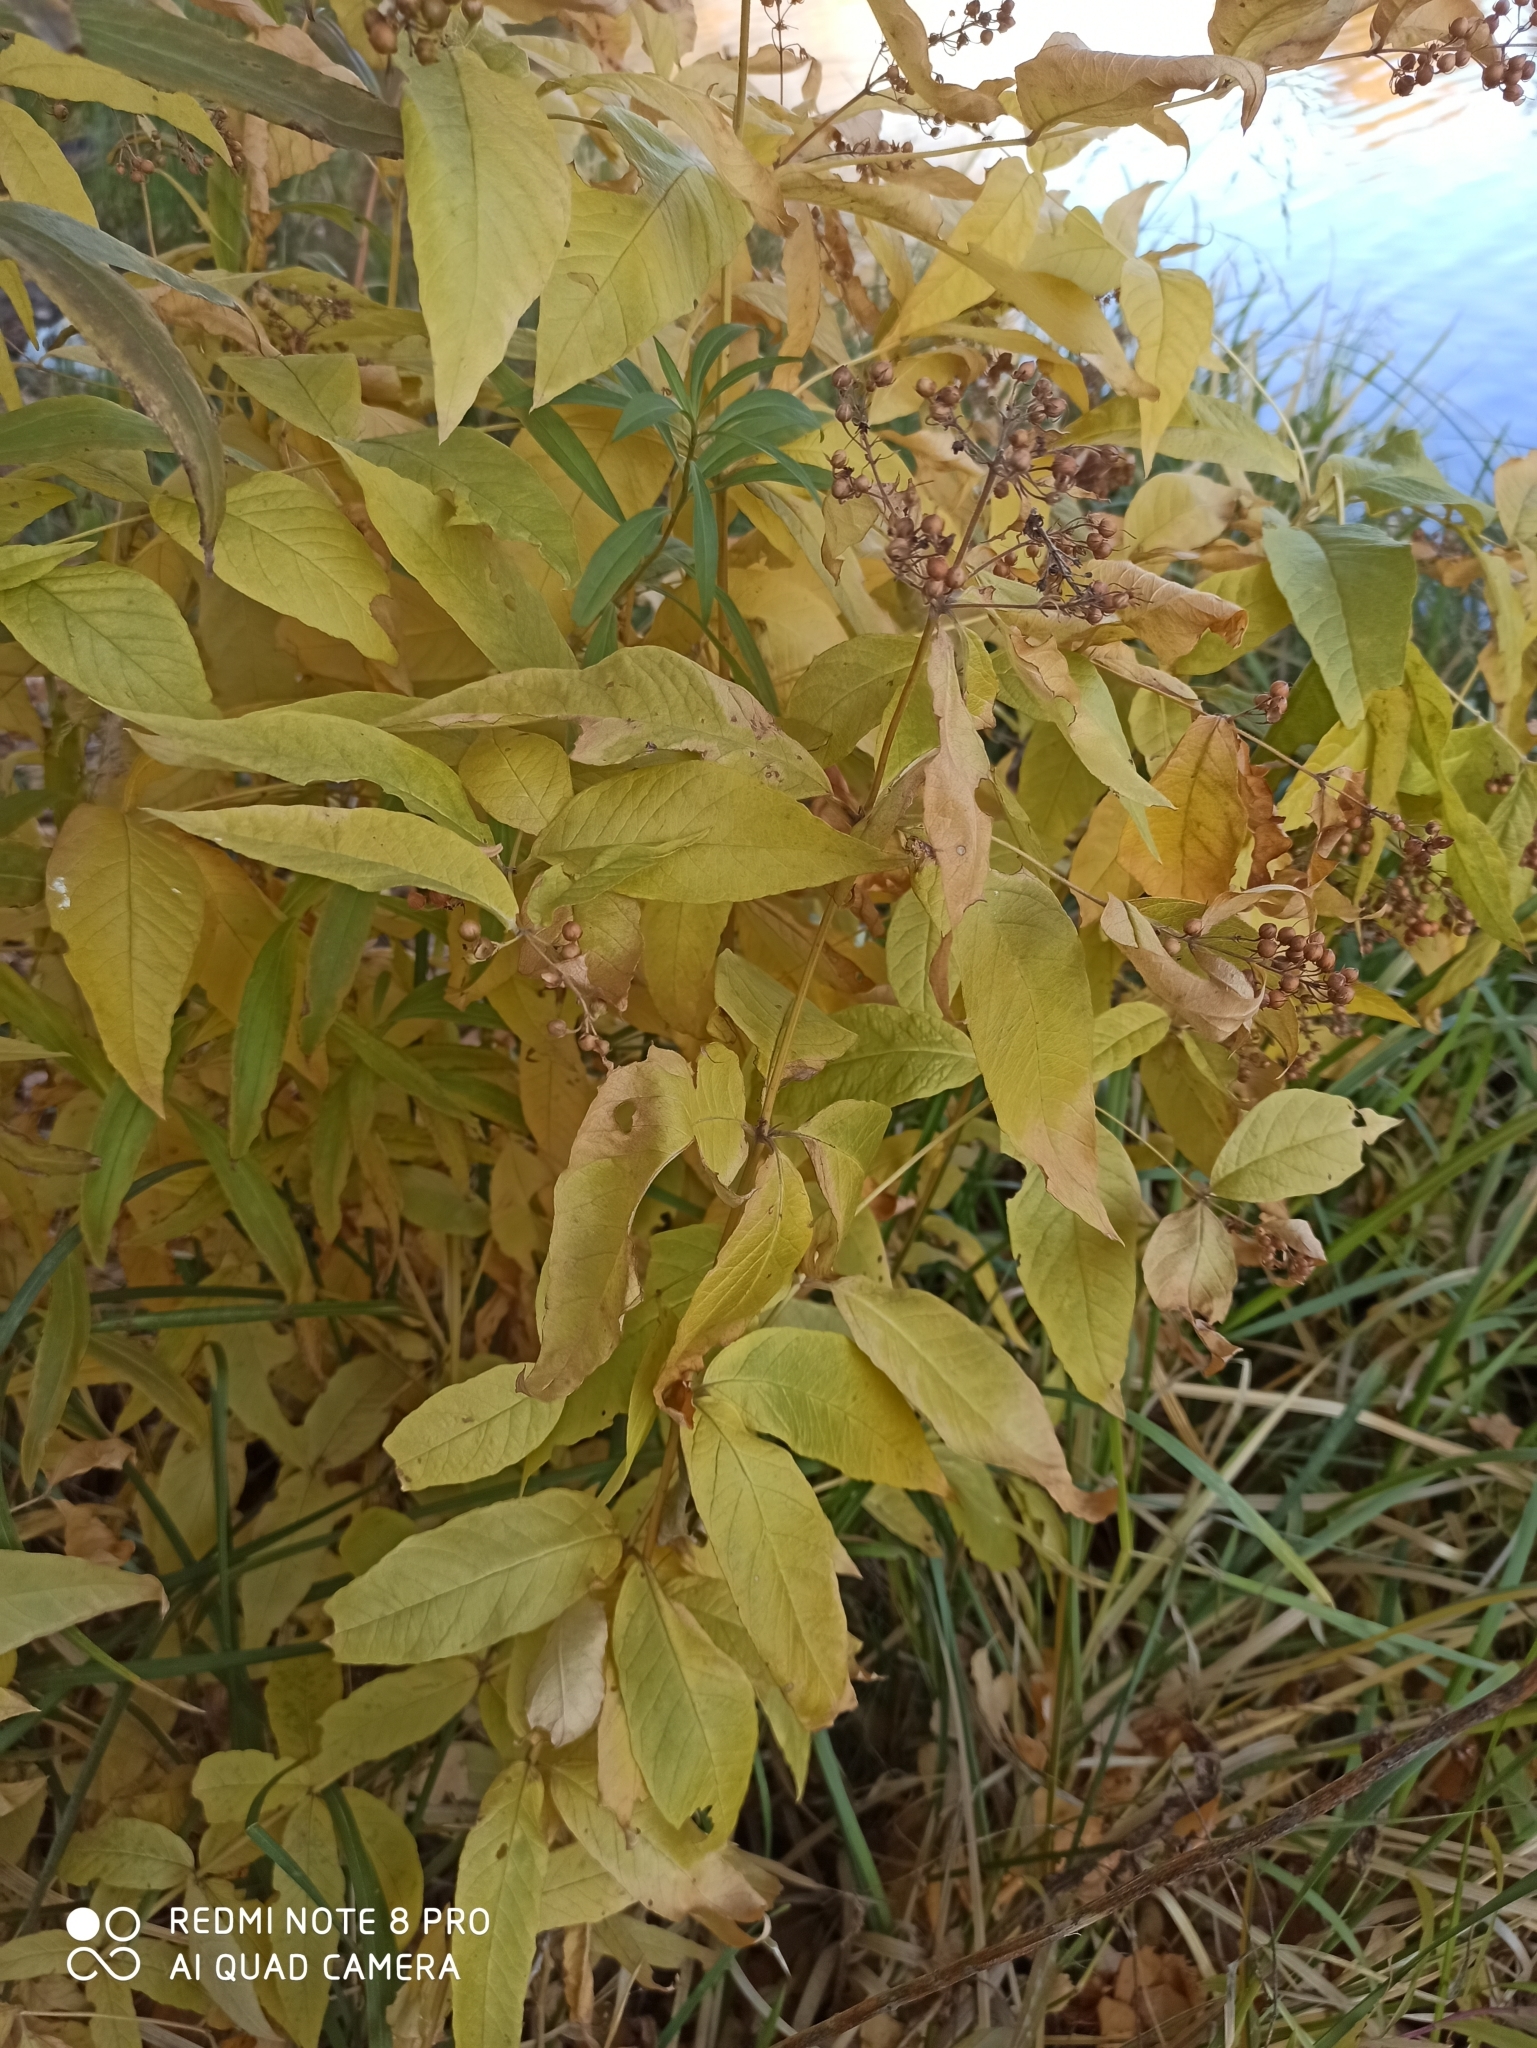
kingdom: Plantae
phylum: Tracheophyta
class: Magnoliopsida
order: Ericales
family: Primulaceae
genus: Lysimachia
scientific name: Lysimachia vulgaris
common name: Yellow loosestrife
